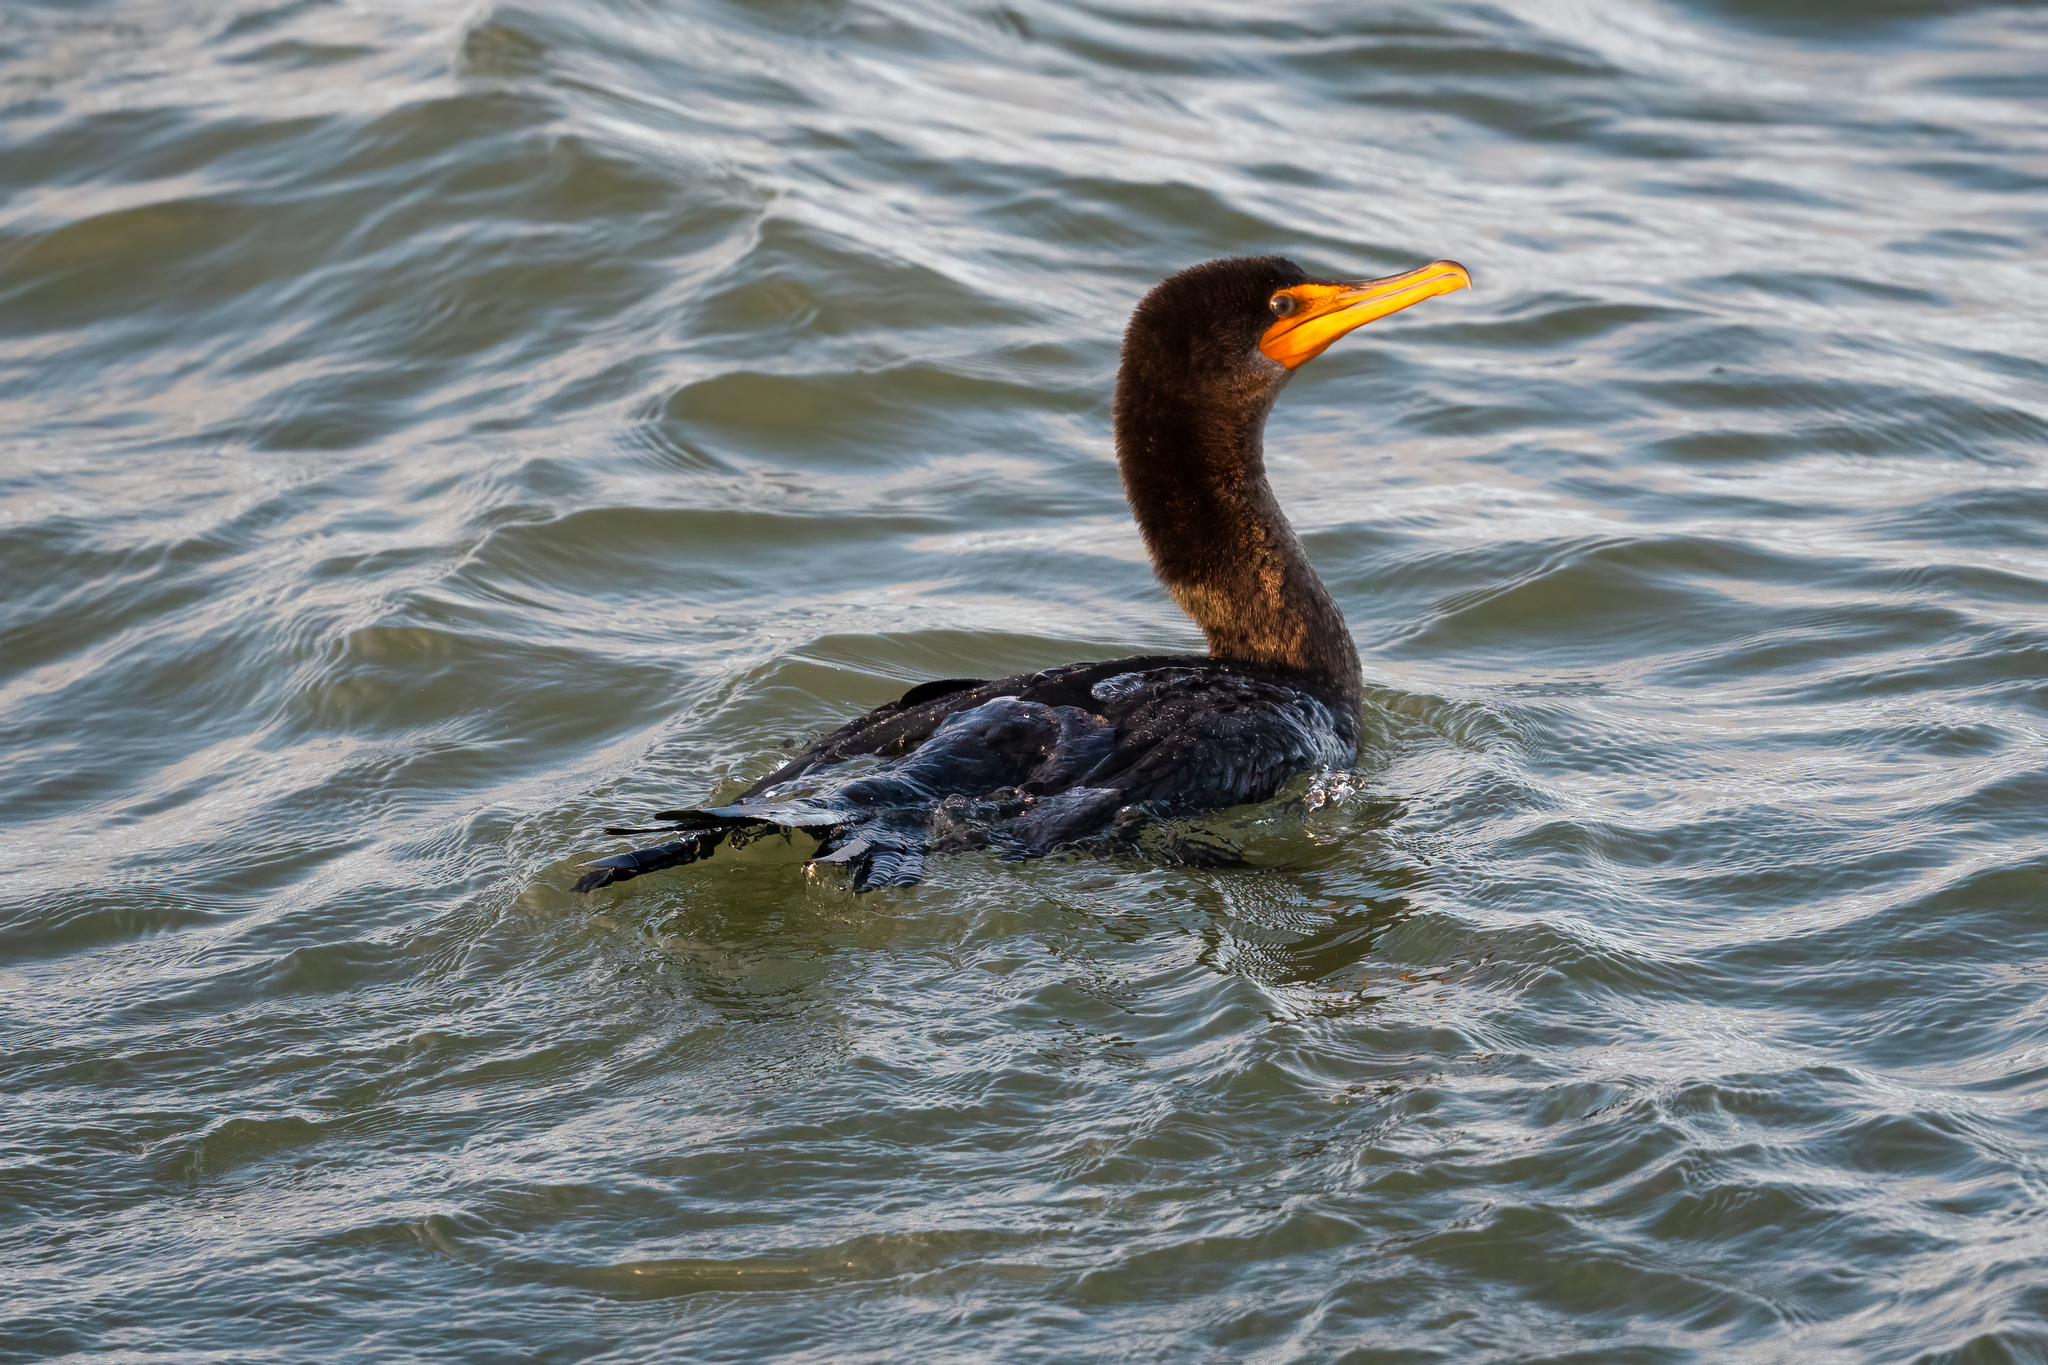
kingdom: Animalia
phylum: Chordata
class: Aves
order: Suliformes
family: Phalacrocoracidae
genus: Phalacrocorax
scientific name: Phalacrocorax auritus
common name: Double-crested cormorant
